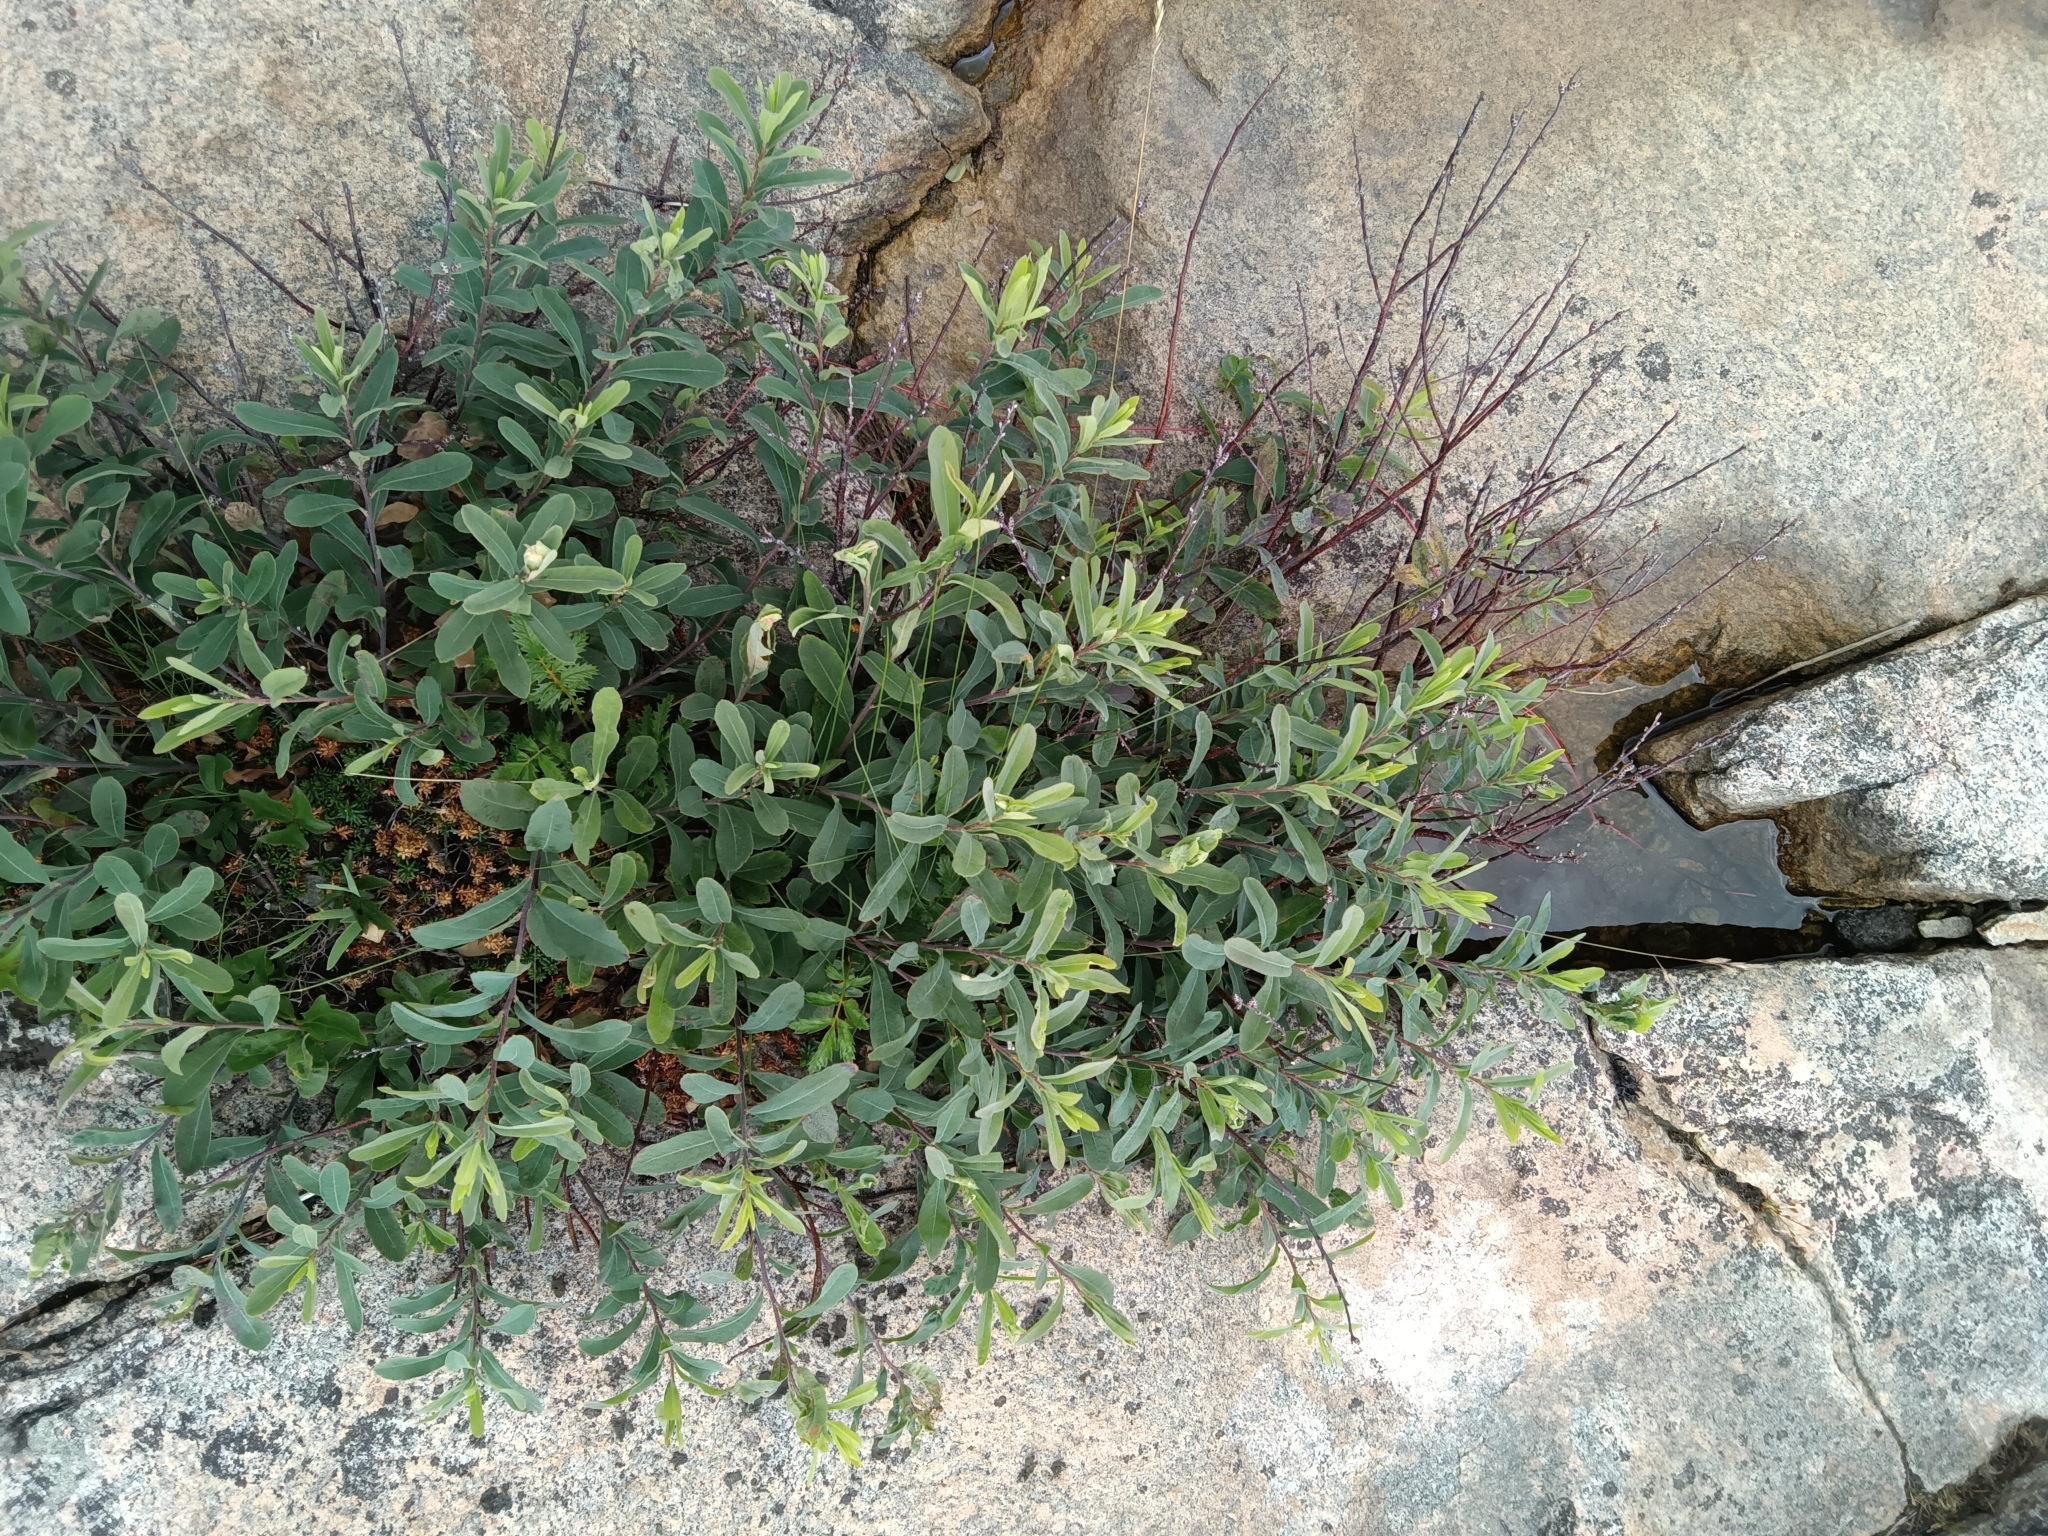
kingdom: Plantae
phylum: Tracheophyta
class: Magnoliopsida
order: Fagales
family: Myricaceae
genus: Myrica
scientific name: Myrica gale
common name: Sweet gale
